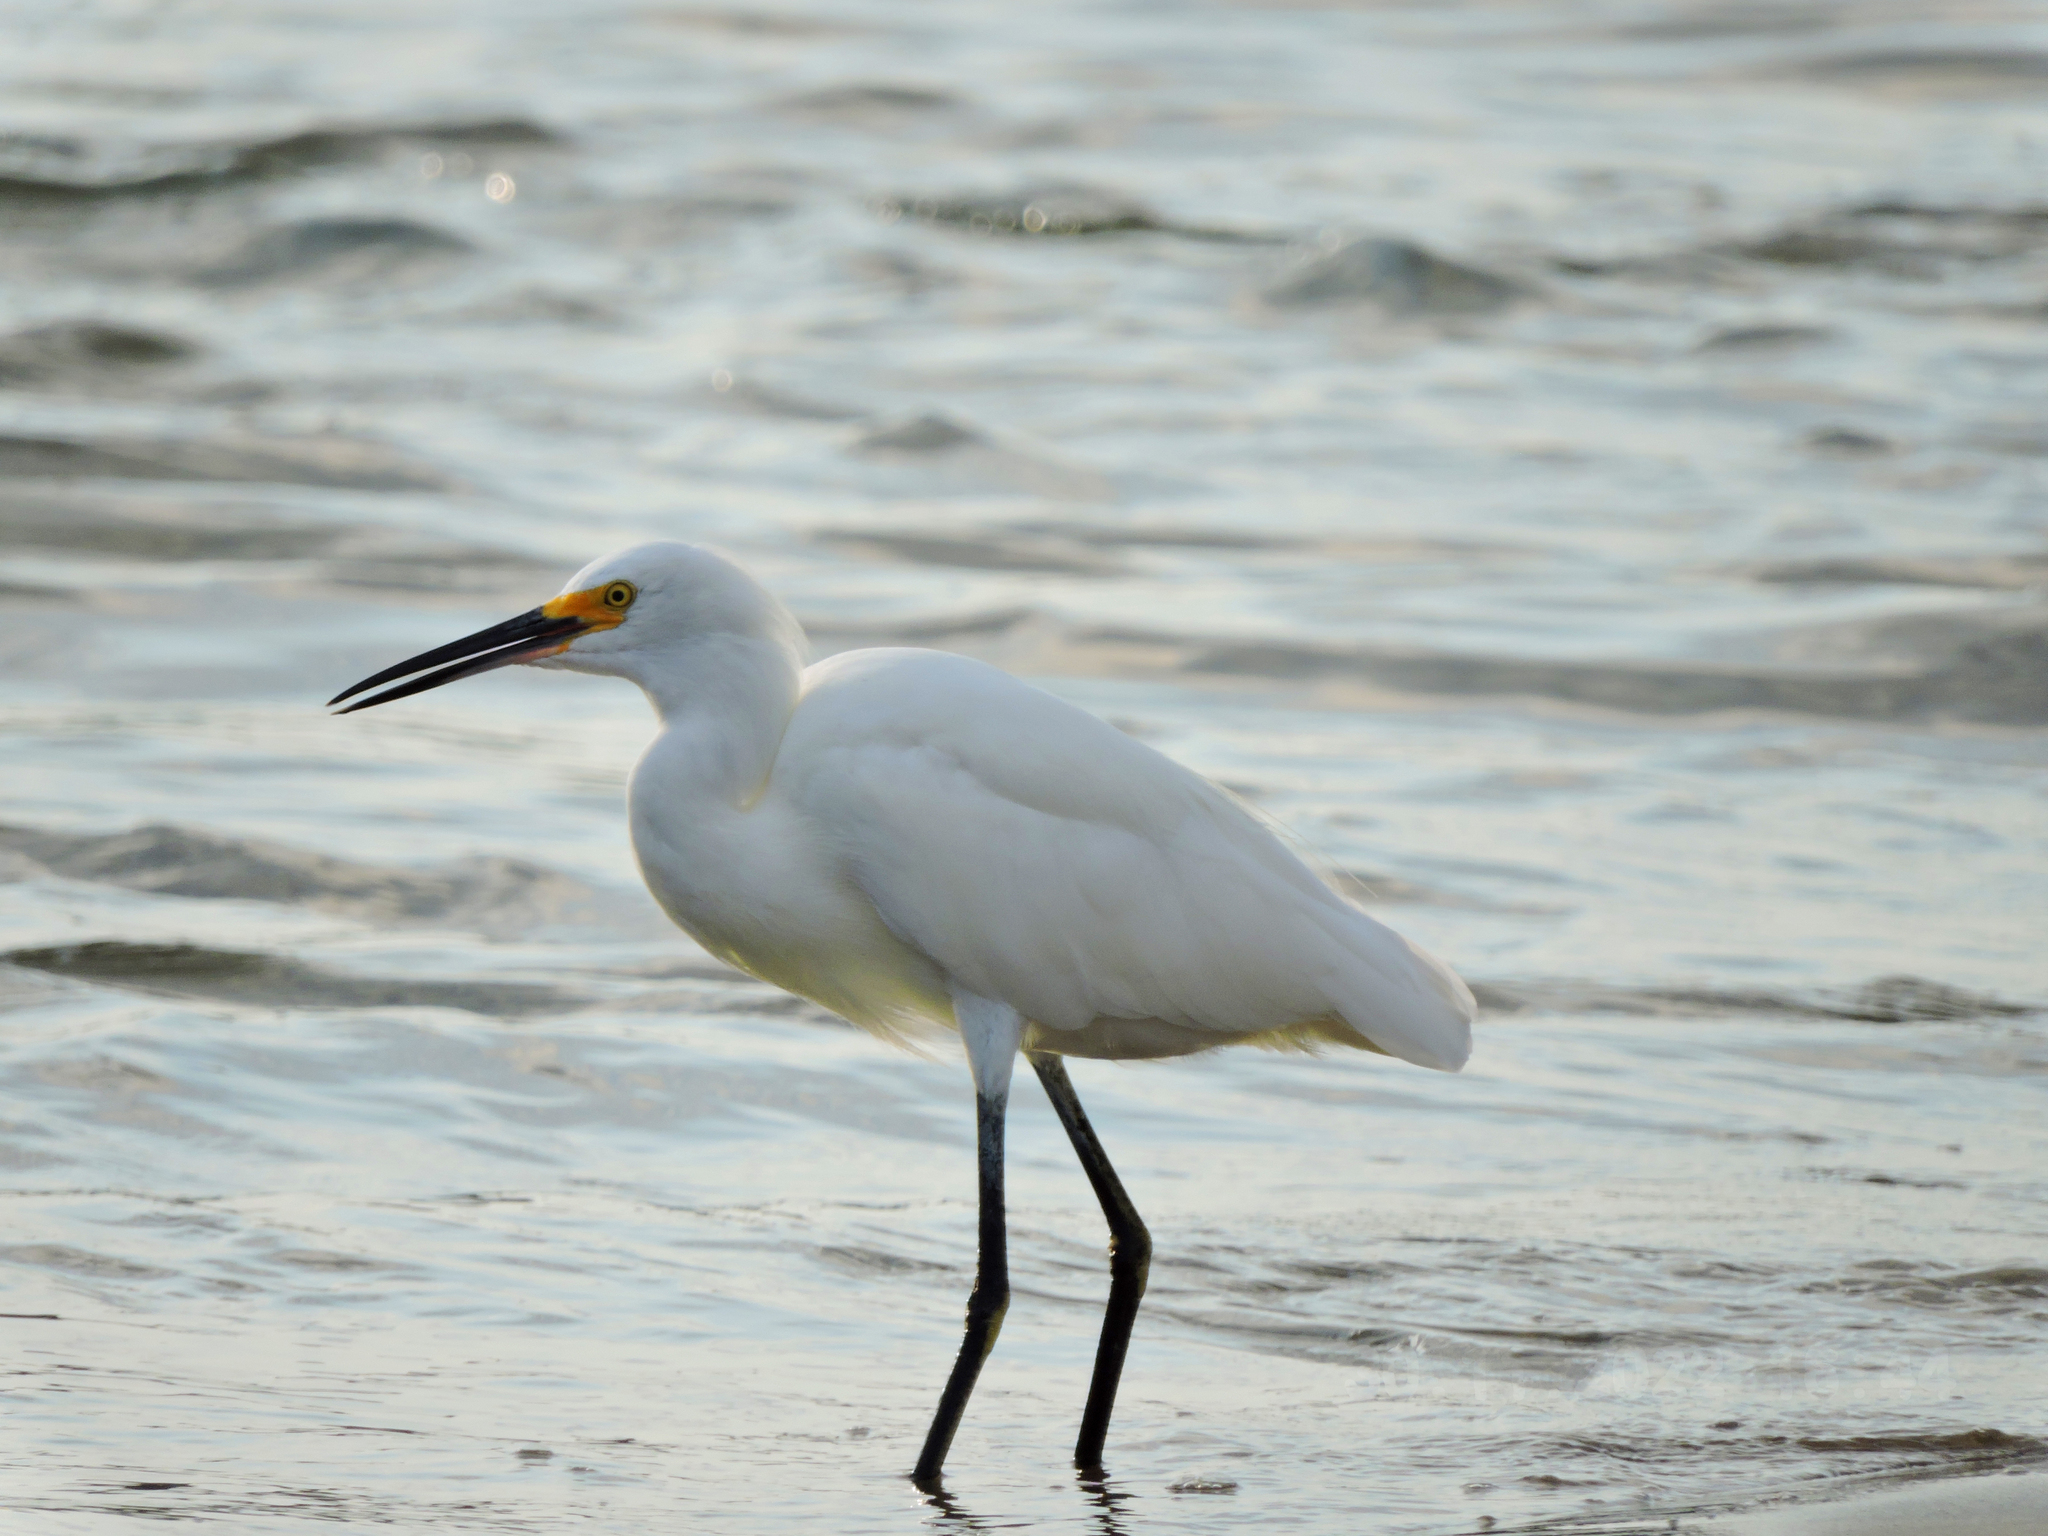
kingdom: Animalia
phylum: Chordata
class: Aves
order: Pelecaniformes
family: Ardeidae
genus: Egretta
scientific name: Egretta thula
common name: Snowy egret
